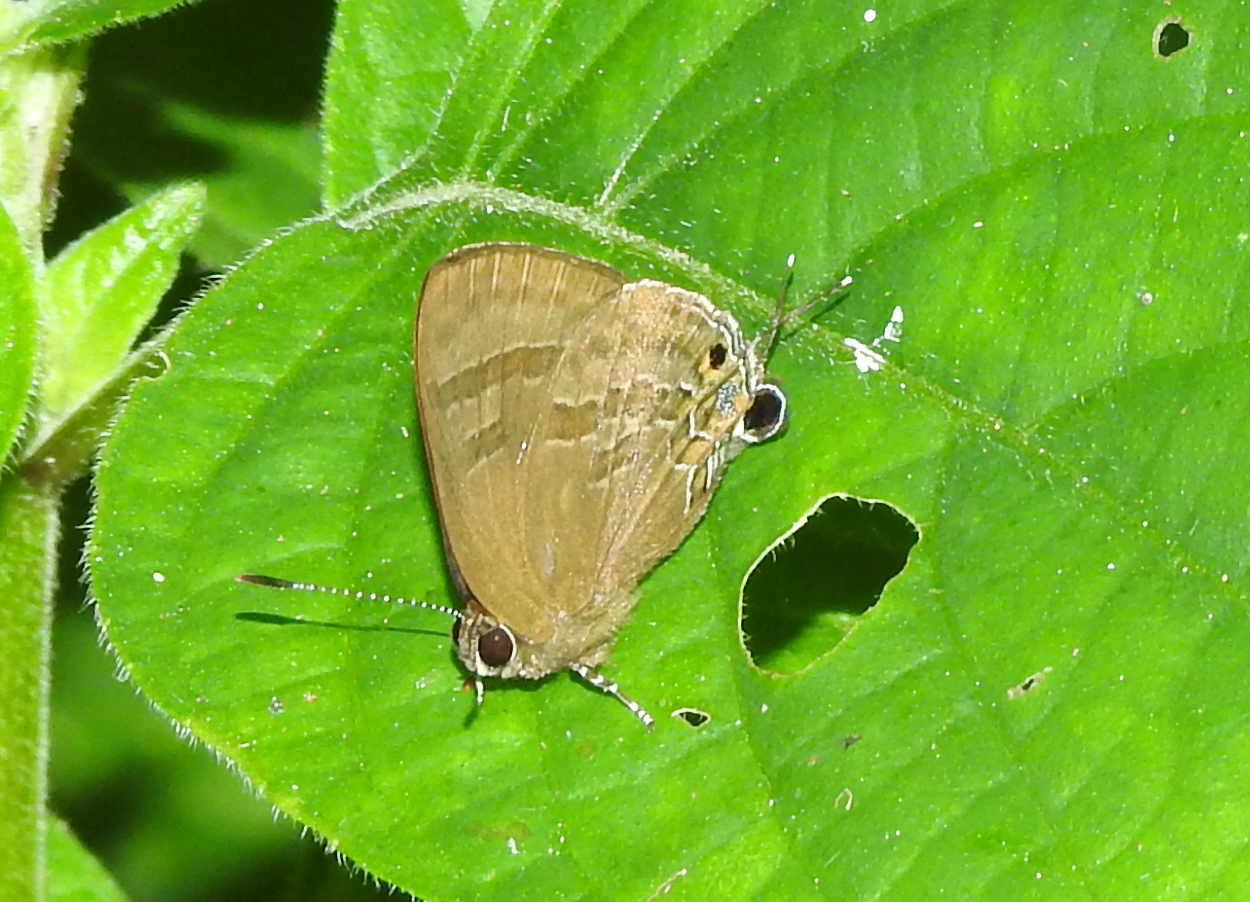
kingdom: Animalia
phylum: Arthropoda
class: Insecta
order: Lepidoptera
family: Lycaenidae
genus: Rapala
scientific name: Rapala varuna
